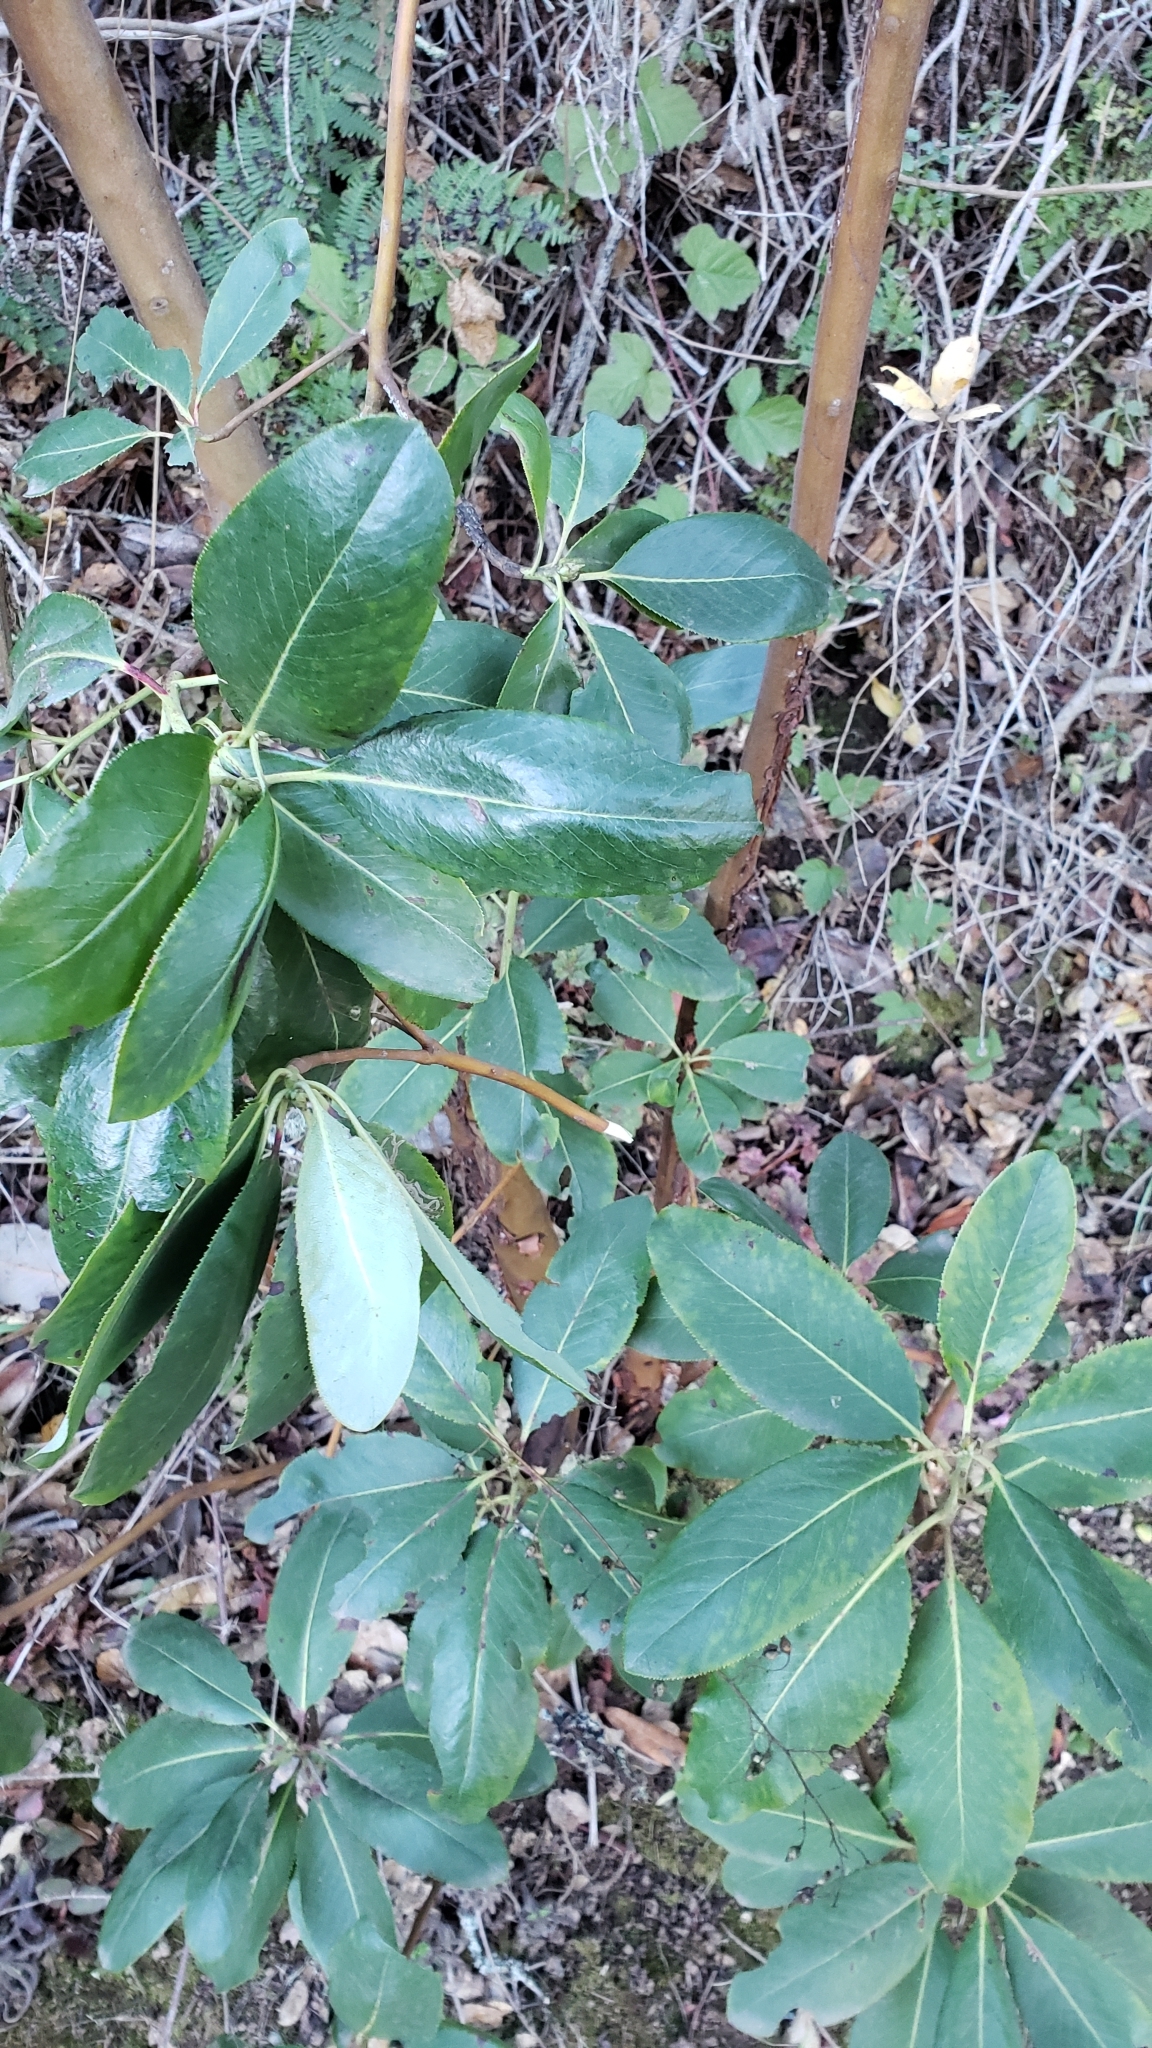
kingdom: Plantae
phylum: Tracheophyta
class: Magnoliopsida
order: Ericales
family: Ericaceae
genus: Arbutus
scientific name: Arbutus menziesii
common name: Pacific madrone
